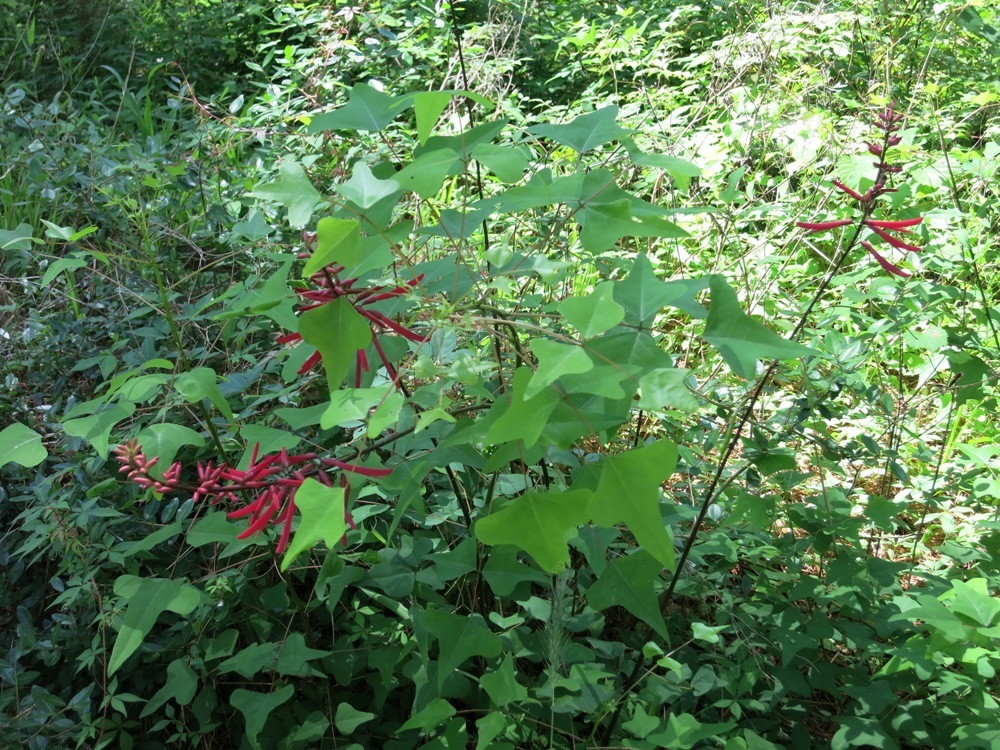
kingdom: Plantae
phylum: Tracheophyta
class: Magnoliopsida
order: Fabales
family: Fabaceae
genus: Erythrina
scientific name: Erythrina herbacea
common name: Coral-bean
